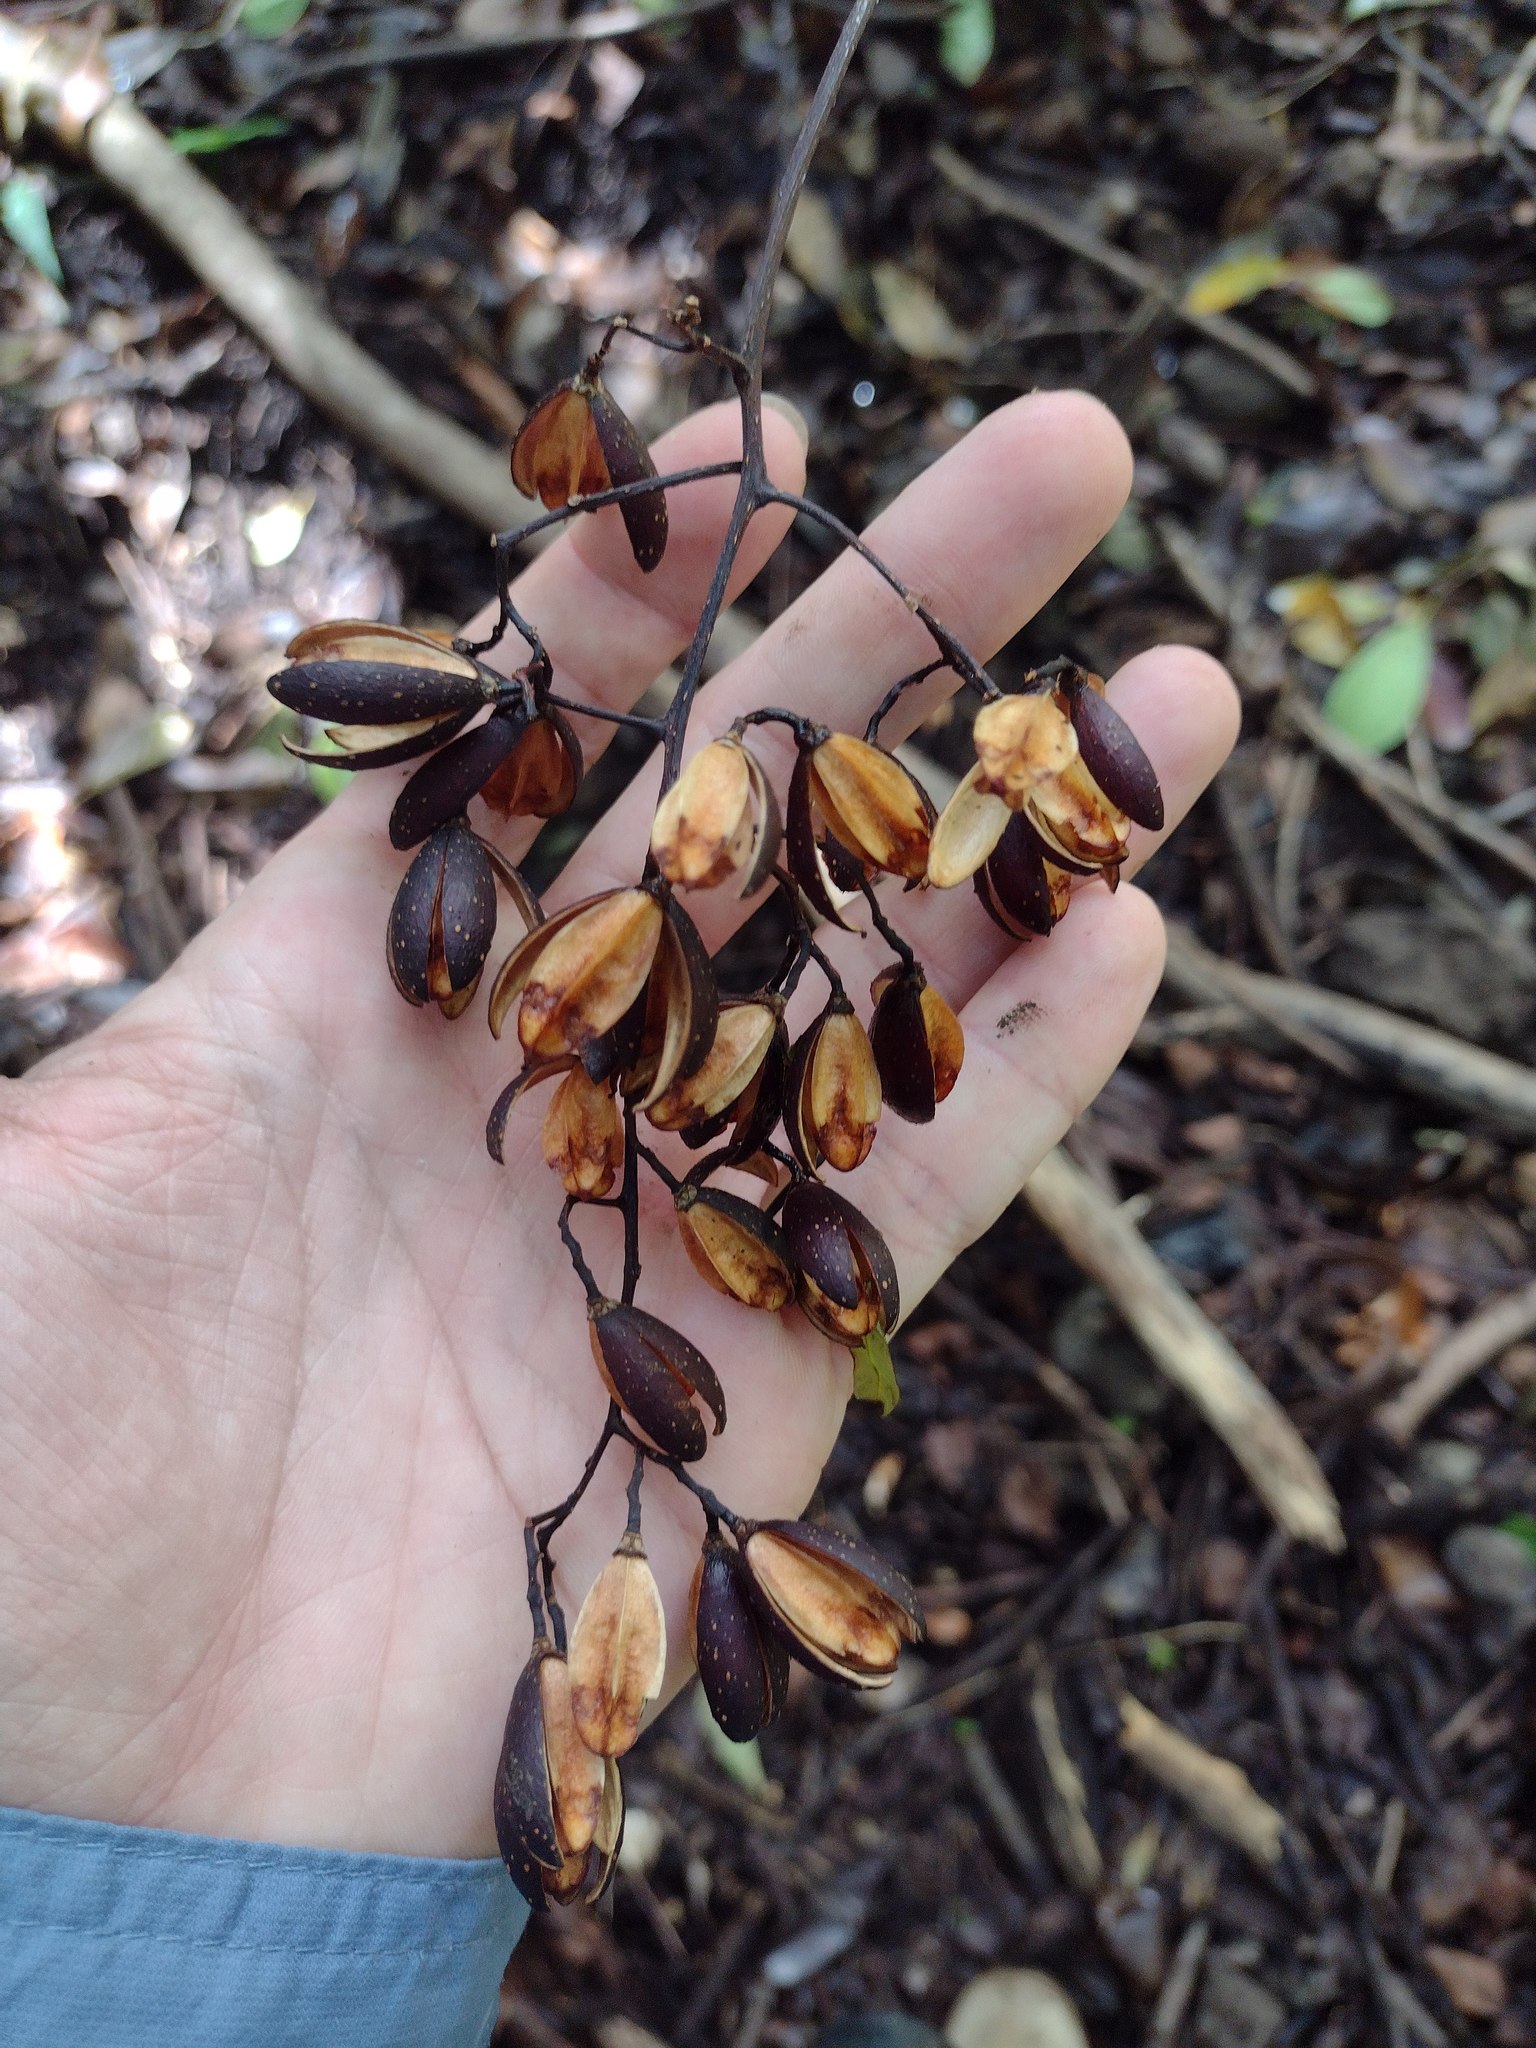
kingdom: Plantae
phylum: Tracheophyta
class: Magnoliopsida
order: Sapindales
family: Meliaceae
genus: Toona
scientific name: Toona ciliata
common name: Australian redcedar
